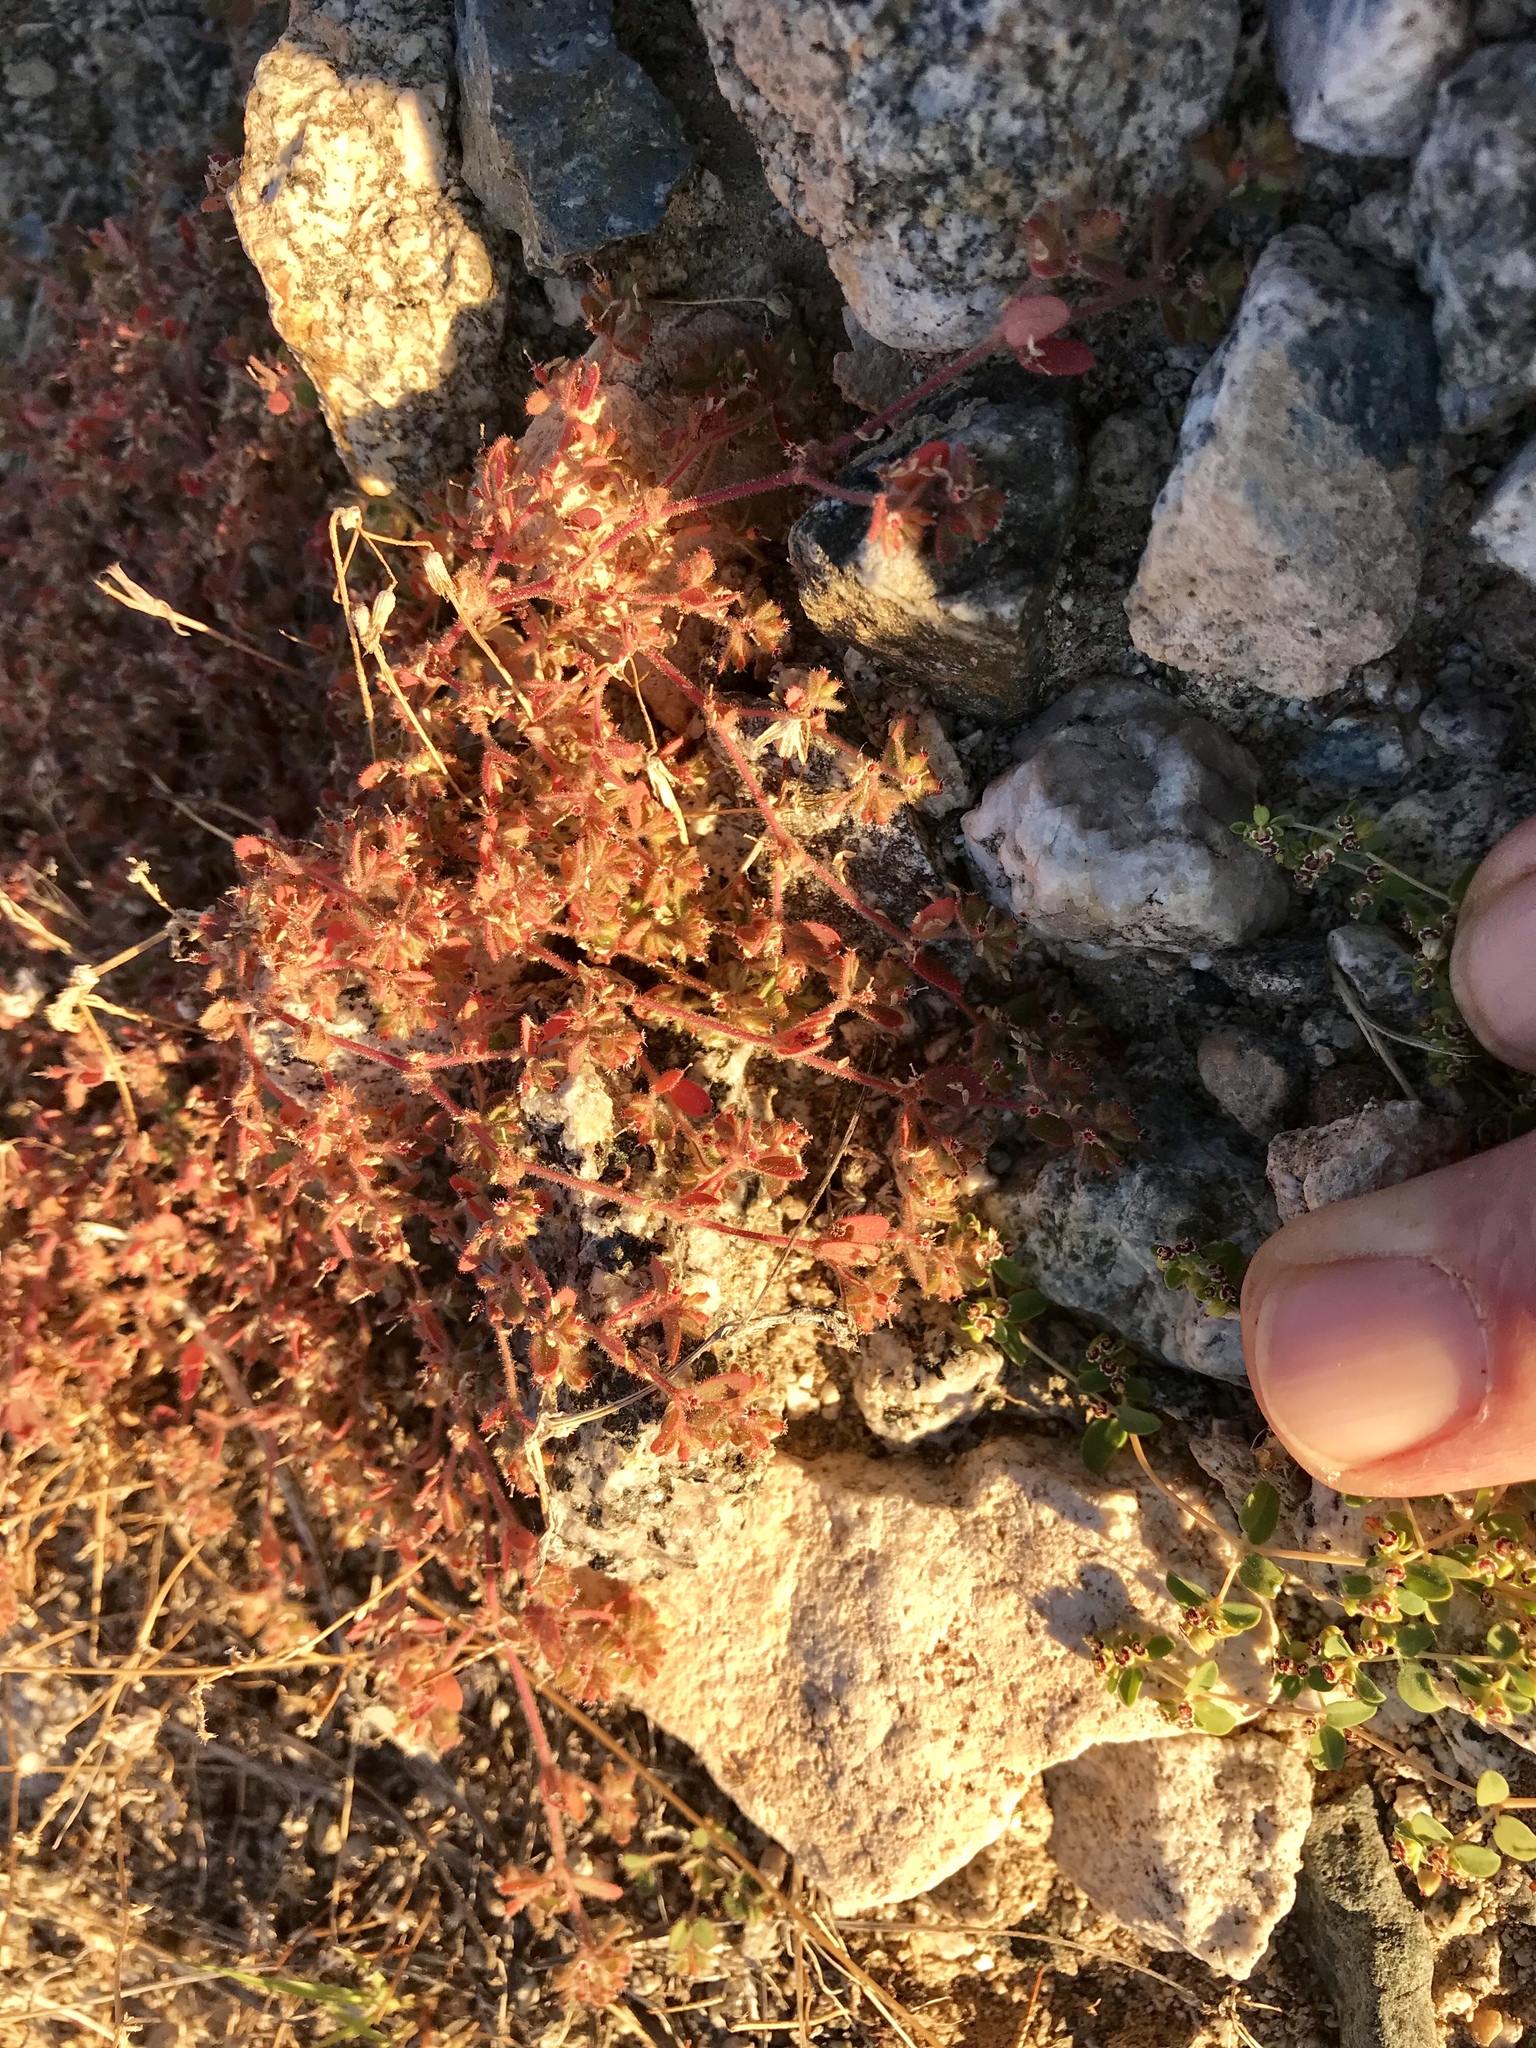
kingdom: Plantae
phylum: Tracheophyta
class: Magnoliopsida
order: Malpighiales
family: Euphorbiaceae
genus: Euphorbia
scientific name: Euphorbia setiloba
